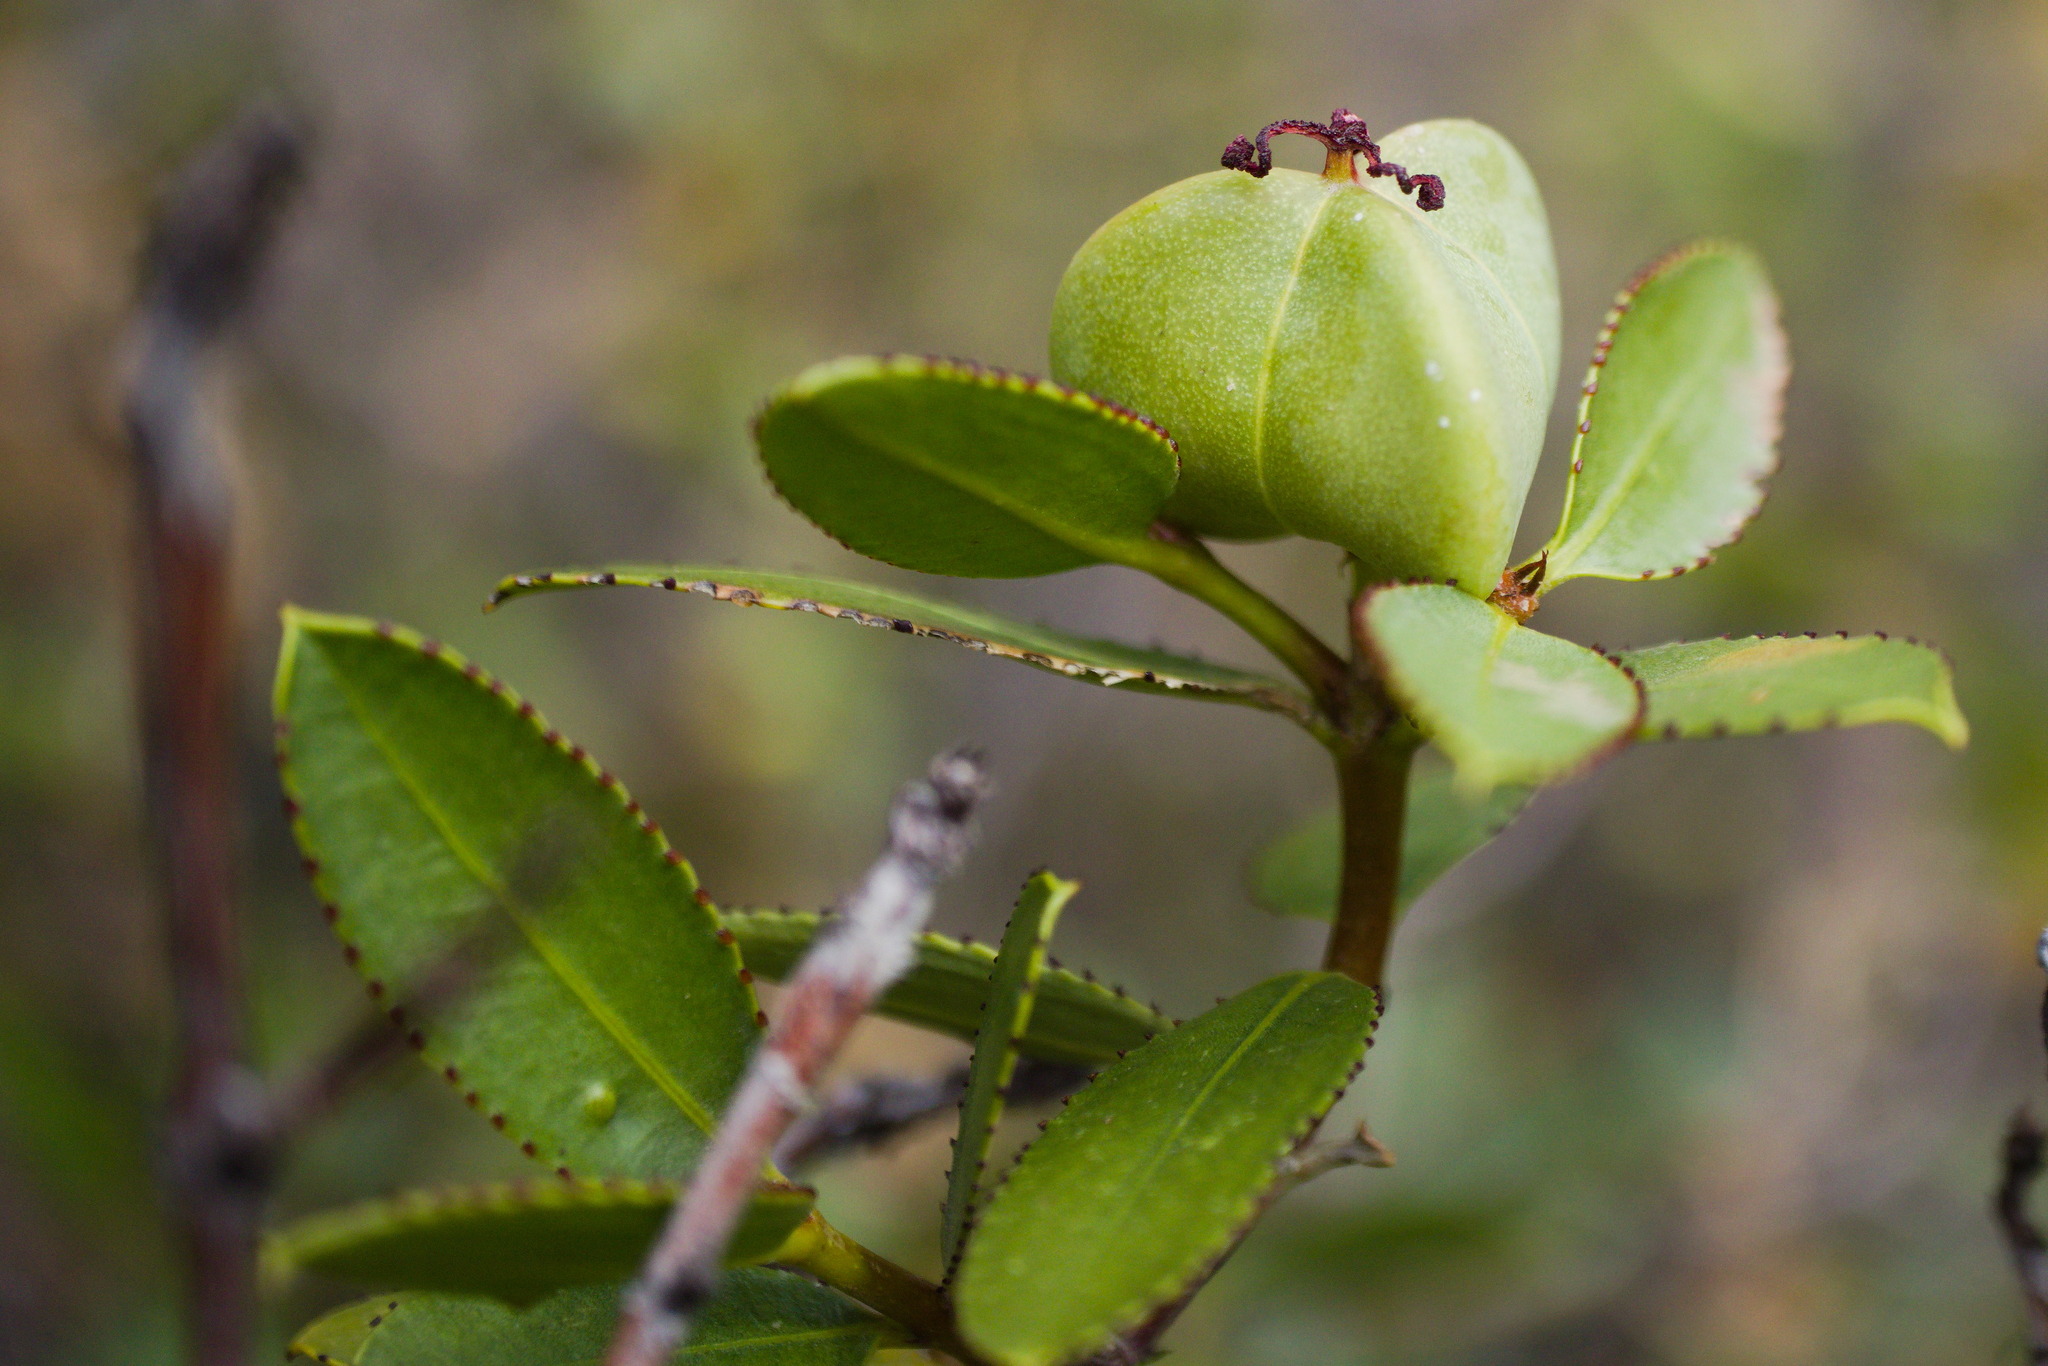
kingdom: Plantae
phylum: Tracheophyta
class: Magnoliopsida
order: Malpighiales
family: Euphorbiaceae
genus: Colliguaja
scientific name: Colliguaja odorifera
